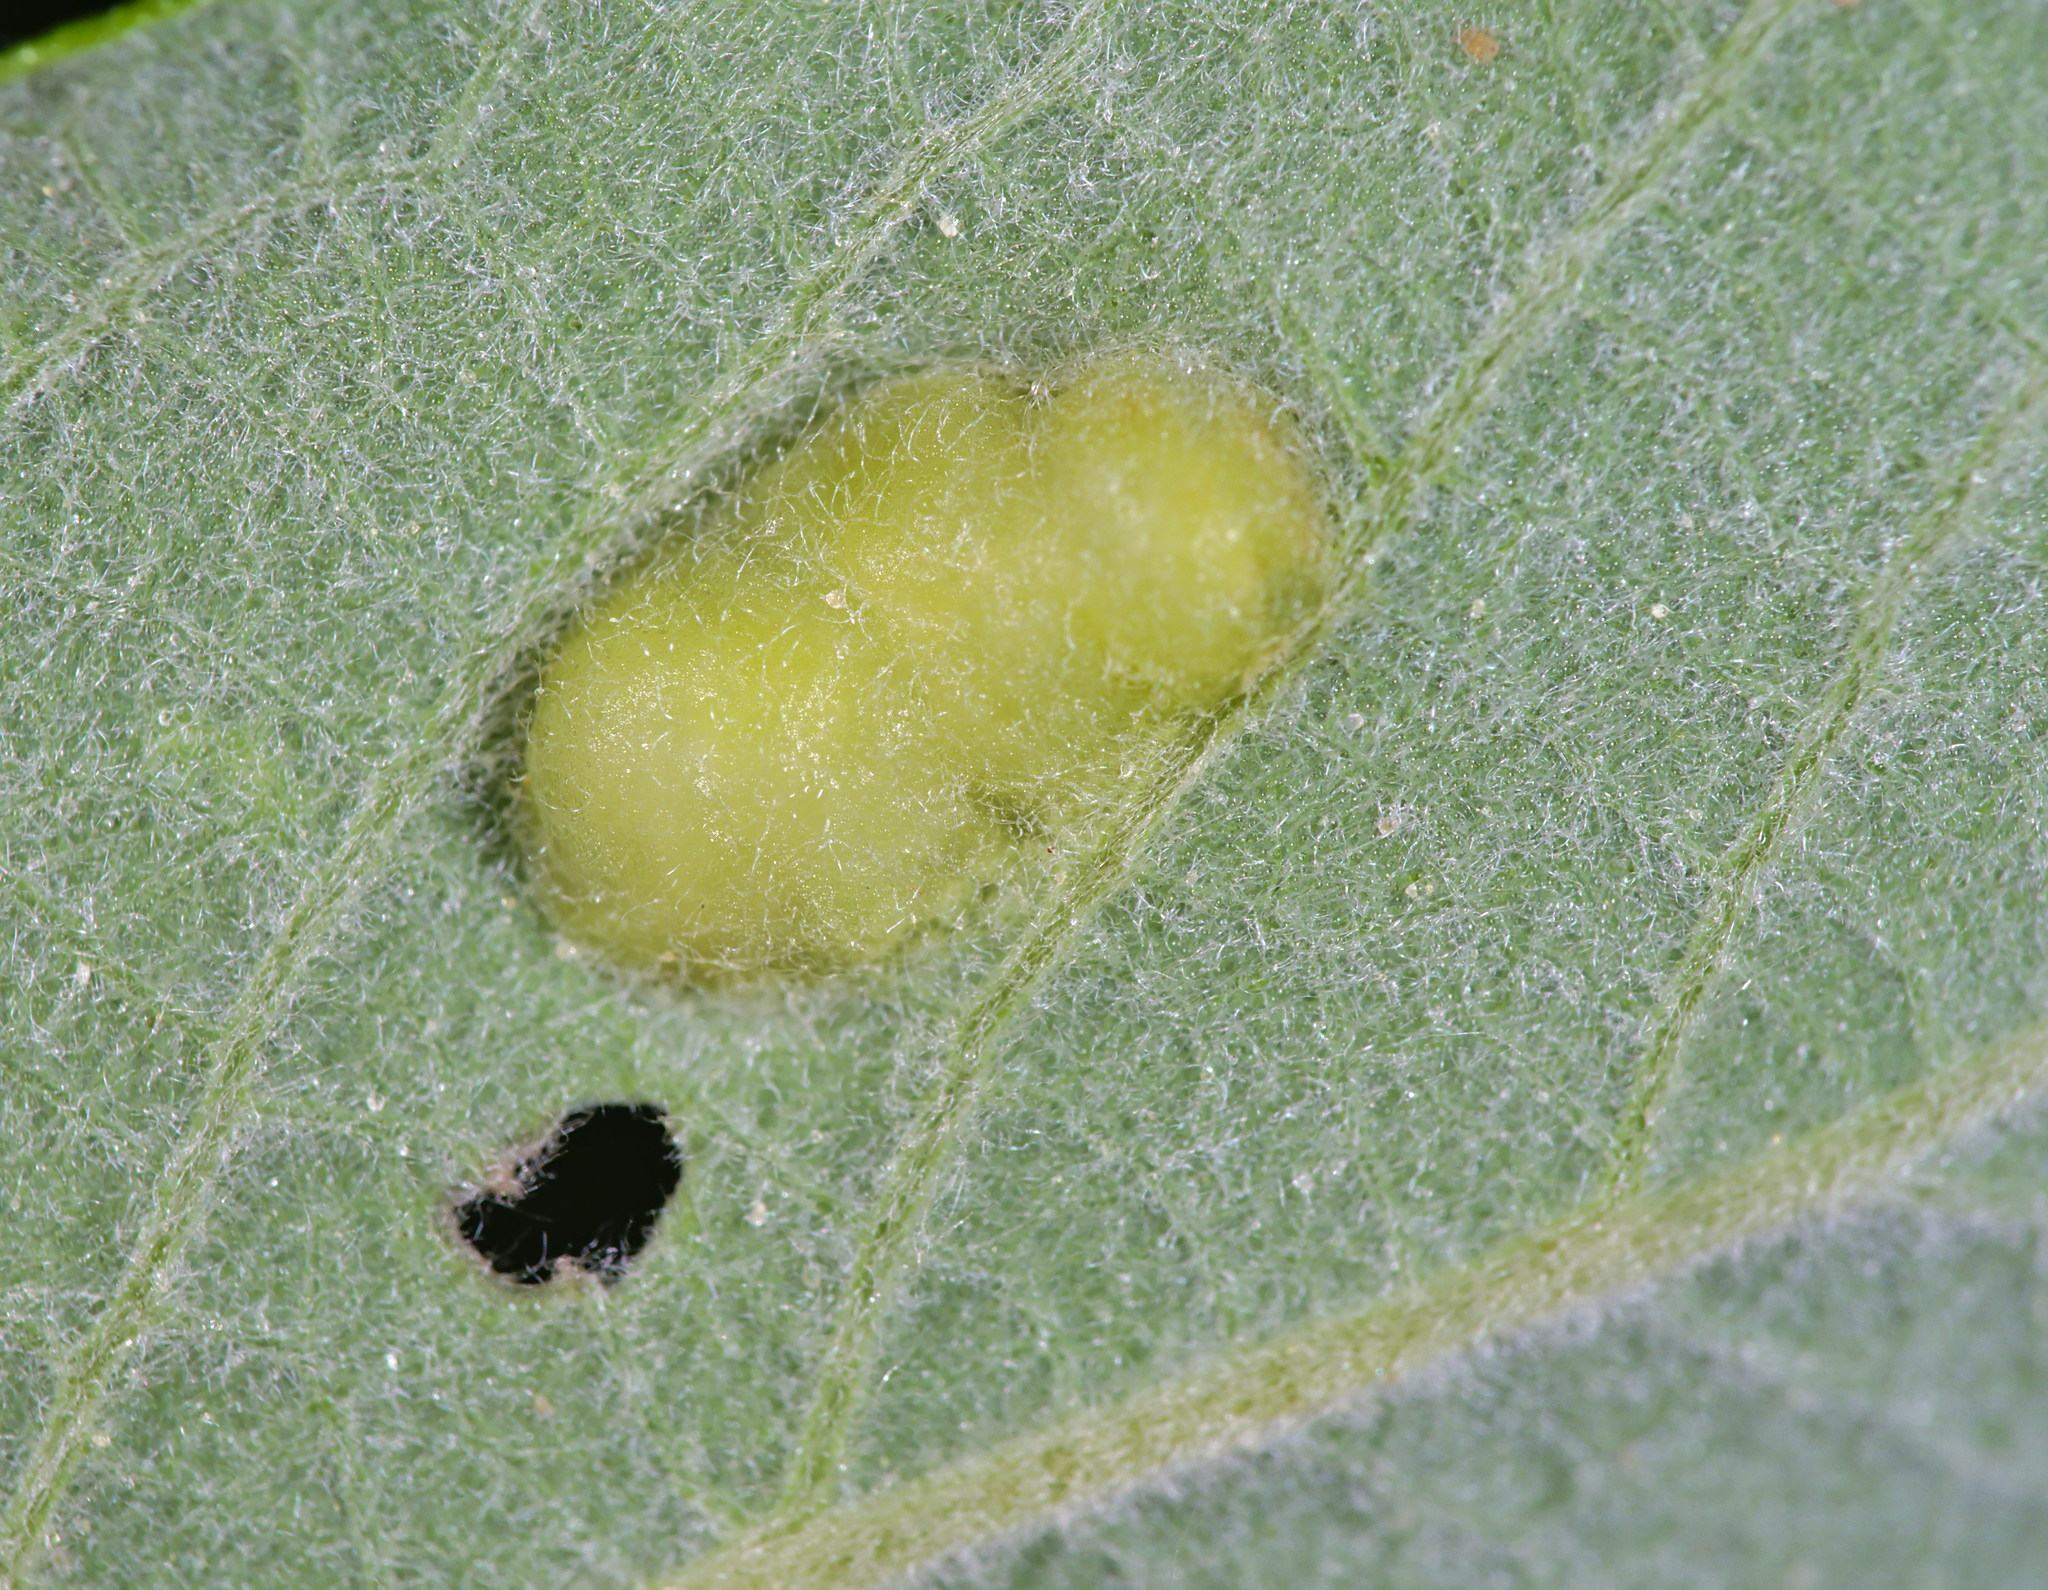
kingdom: Animalia
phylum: Arthropoda
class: Insecta
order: Hymenoptera
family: Tenthredinidae
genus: Pontania
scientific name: Pontania bridgmanii
